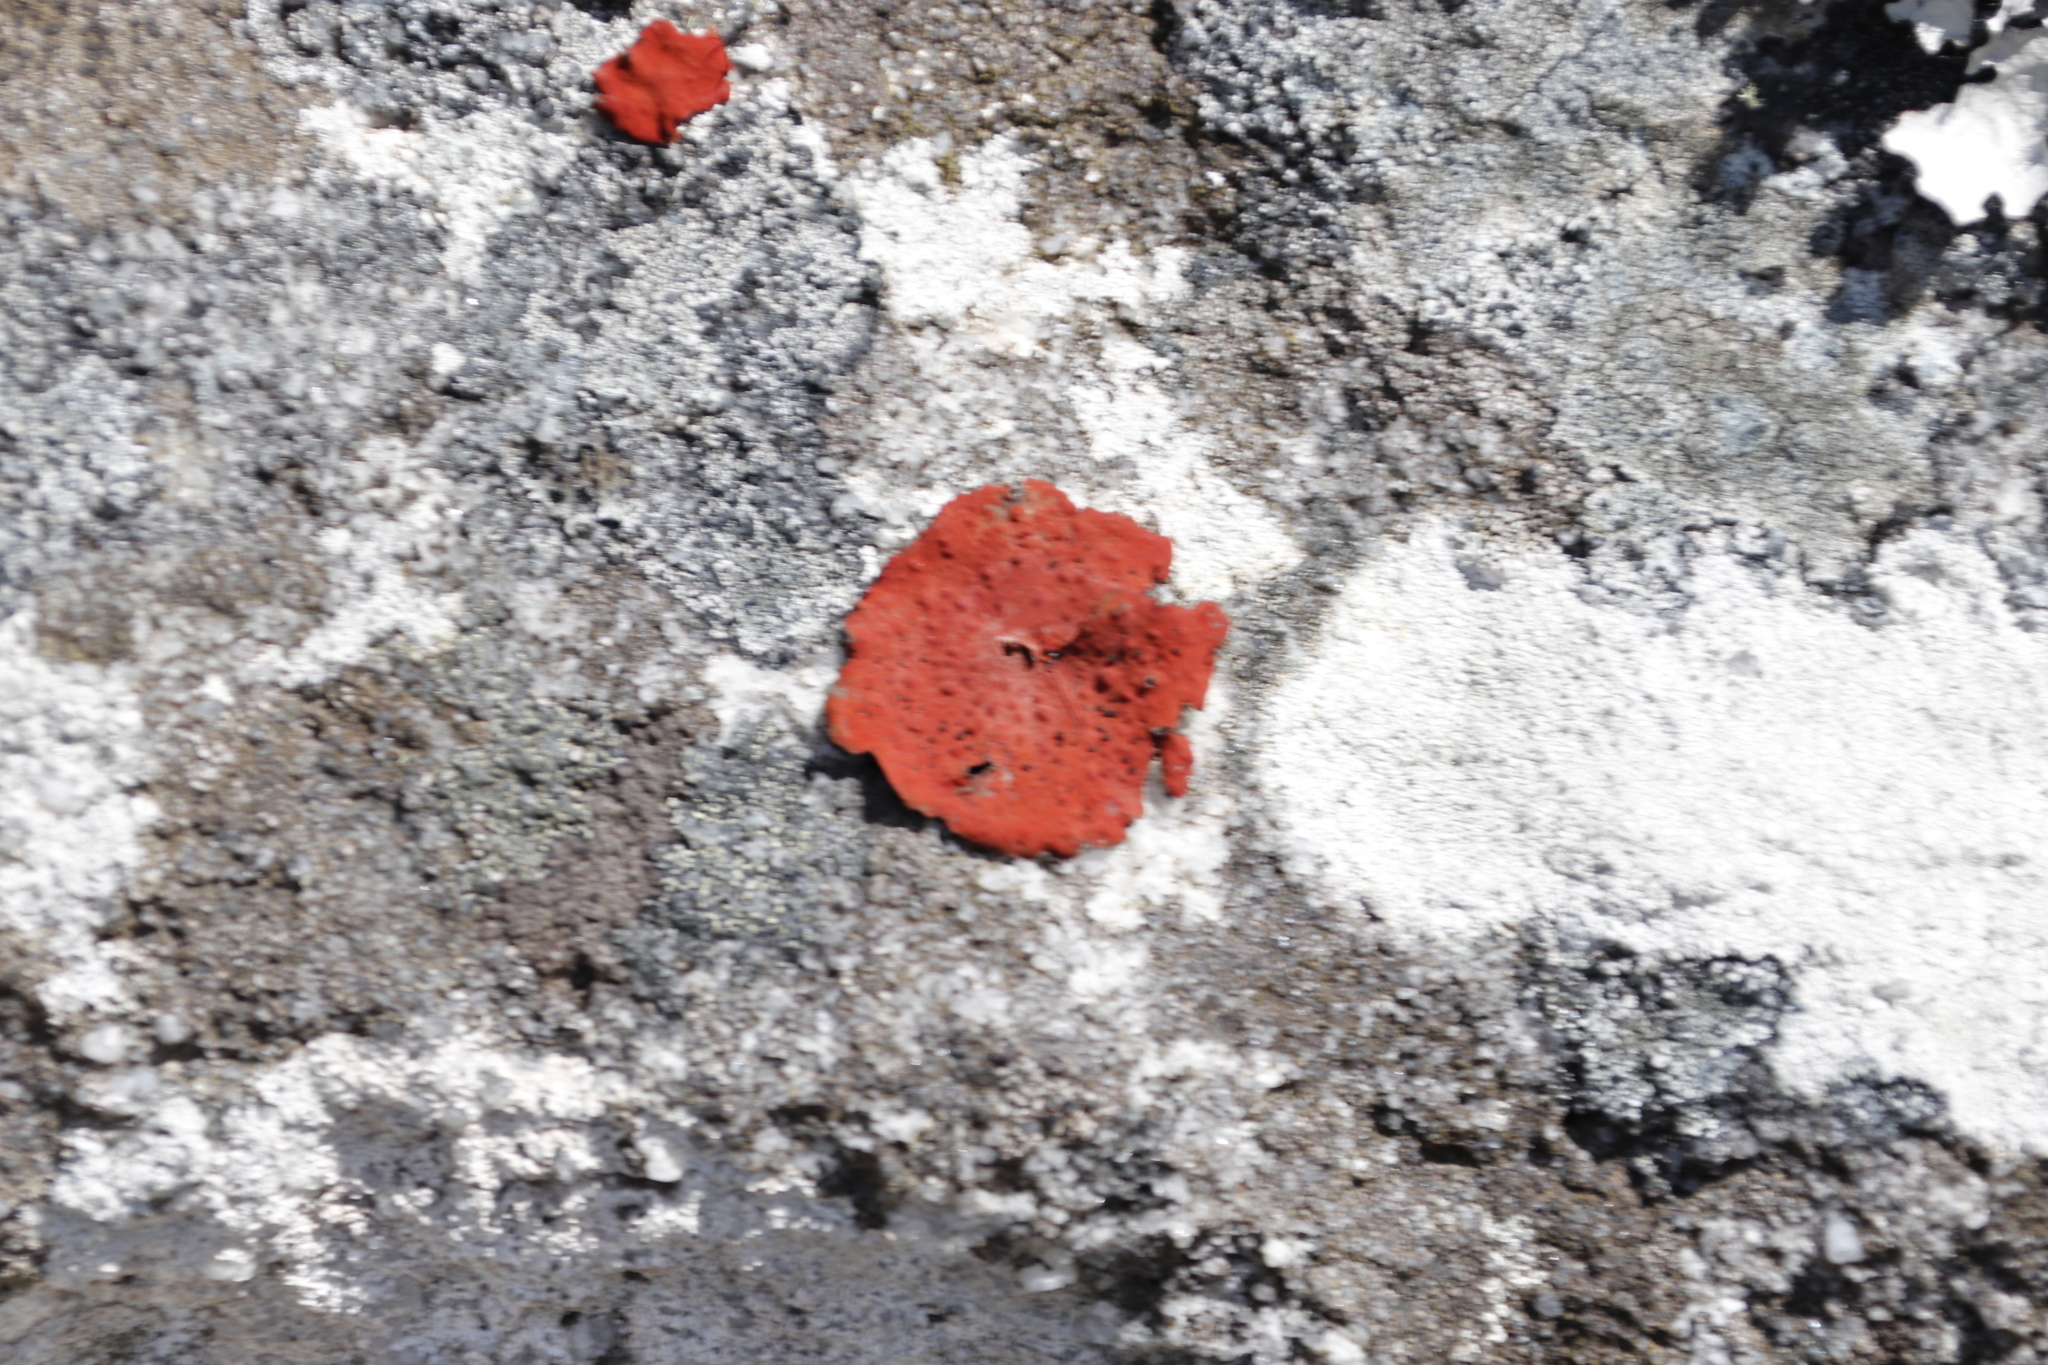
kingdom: Fungi
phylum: Ascomycota
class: Lecanoromycetes
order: Umbilicariales
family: Umbilicariaceae
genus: Lasallia
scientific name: Lasallia rubiginosa
